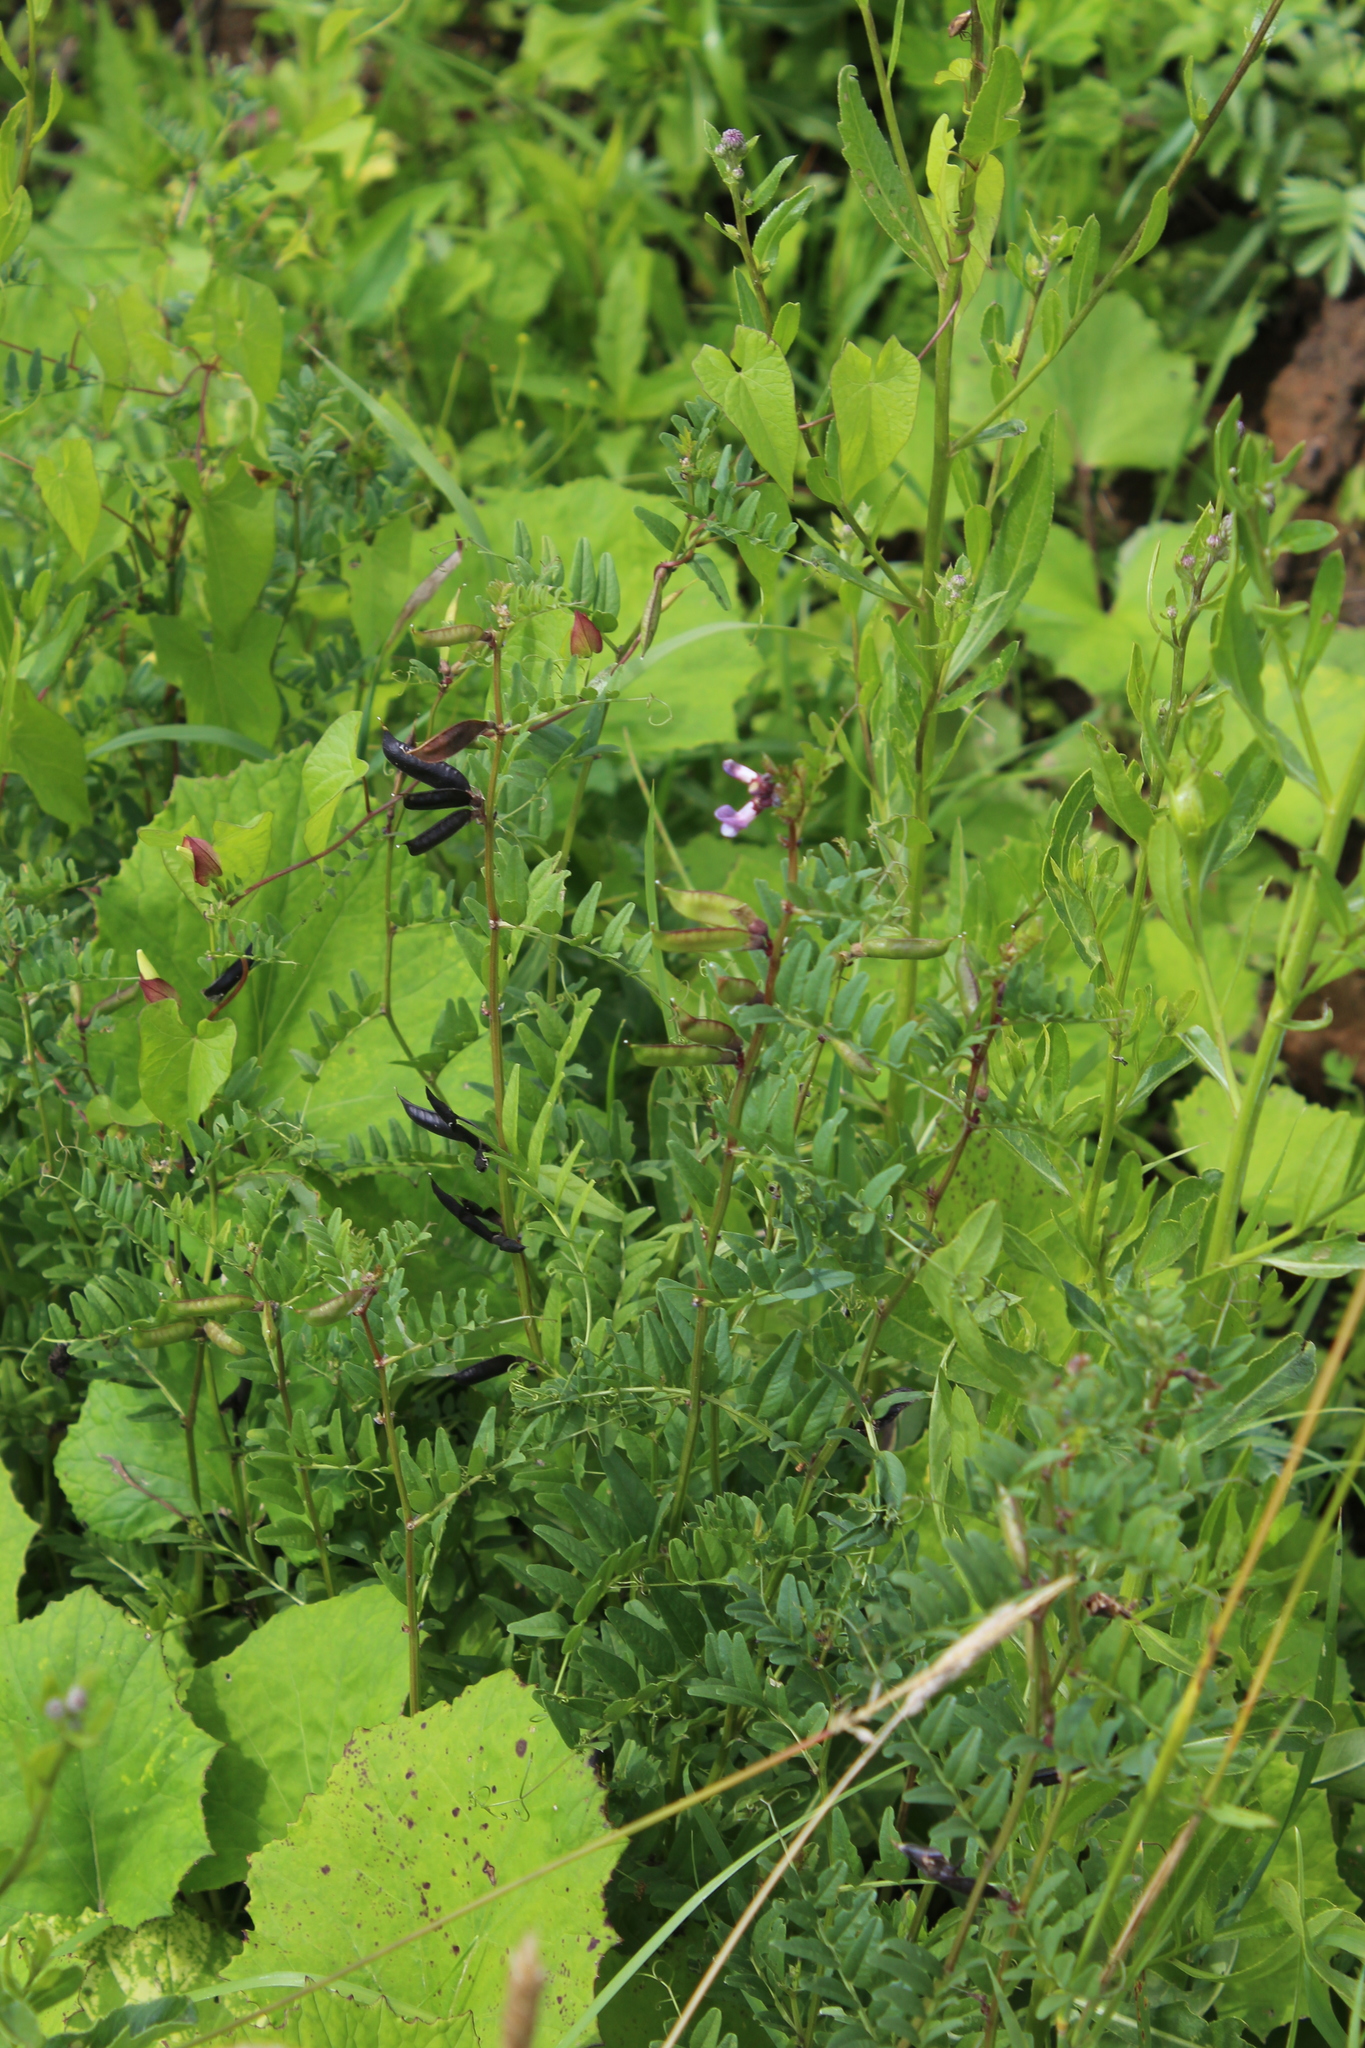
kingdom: Plantae
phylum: Tracheophyta
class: Magnoliopsida
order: Fabales
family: Fabaceae
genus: Vicia
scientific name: Vicia sepium
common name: Bush vetch
